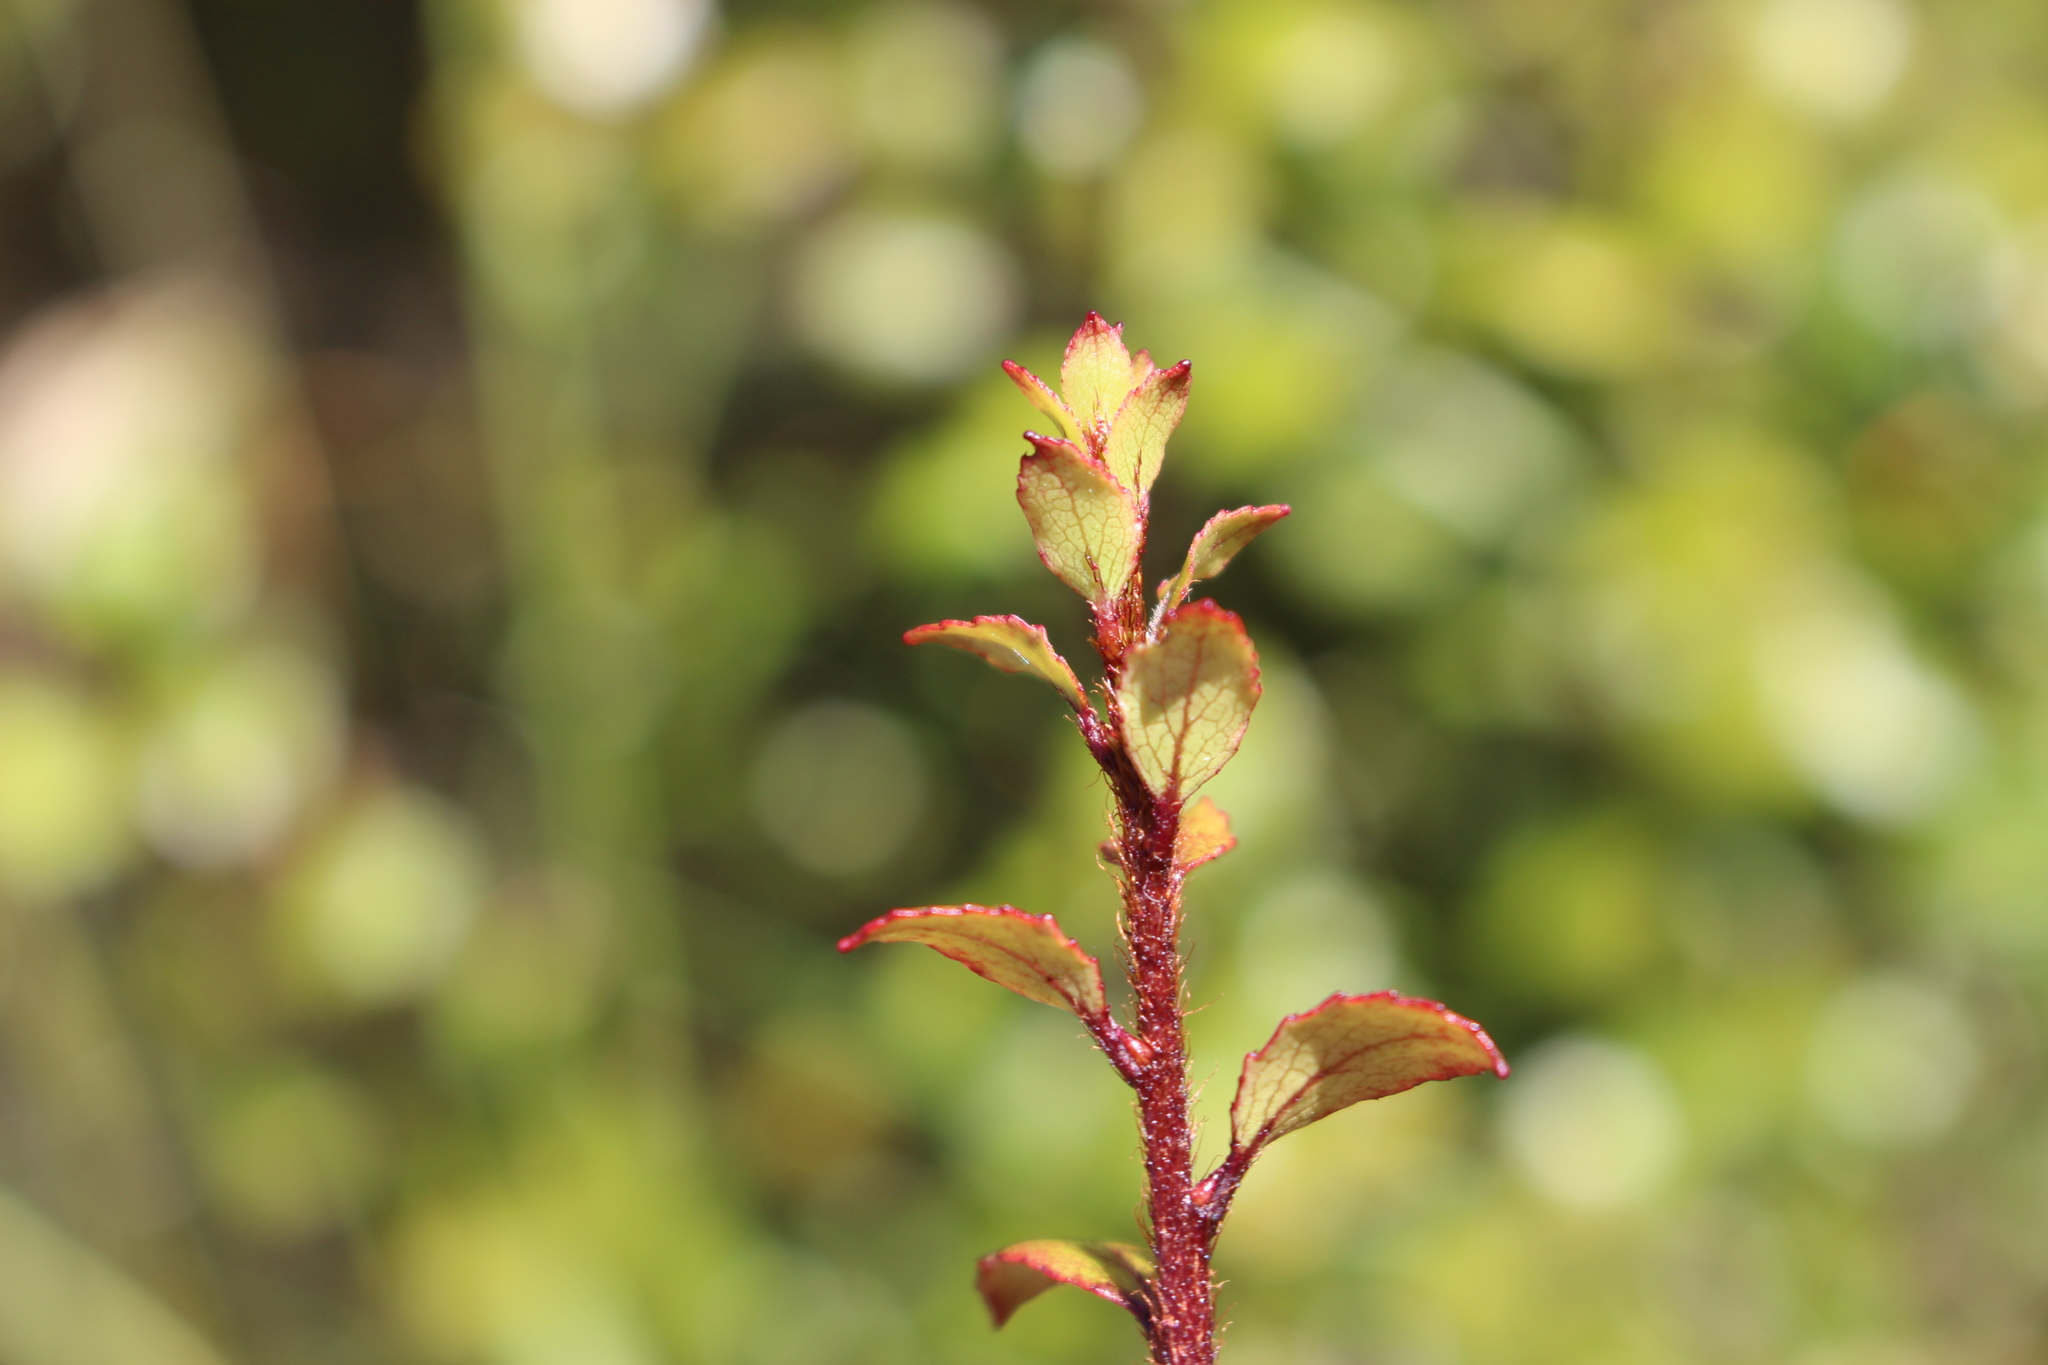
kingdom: Plantae
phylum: Tracheophyta
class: Magnoliopsida
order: Ericales
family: Ericaceae
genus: Gaultheria
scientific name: Gaultheria antipoda
